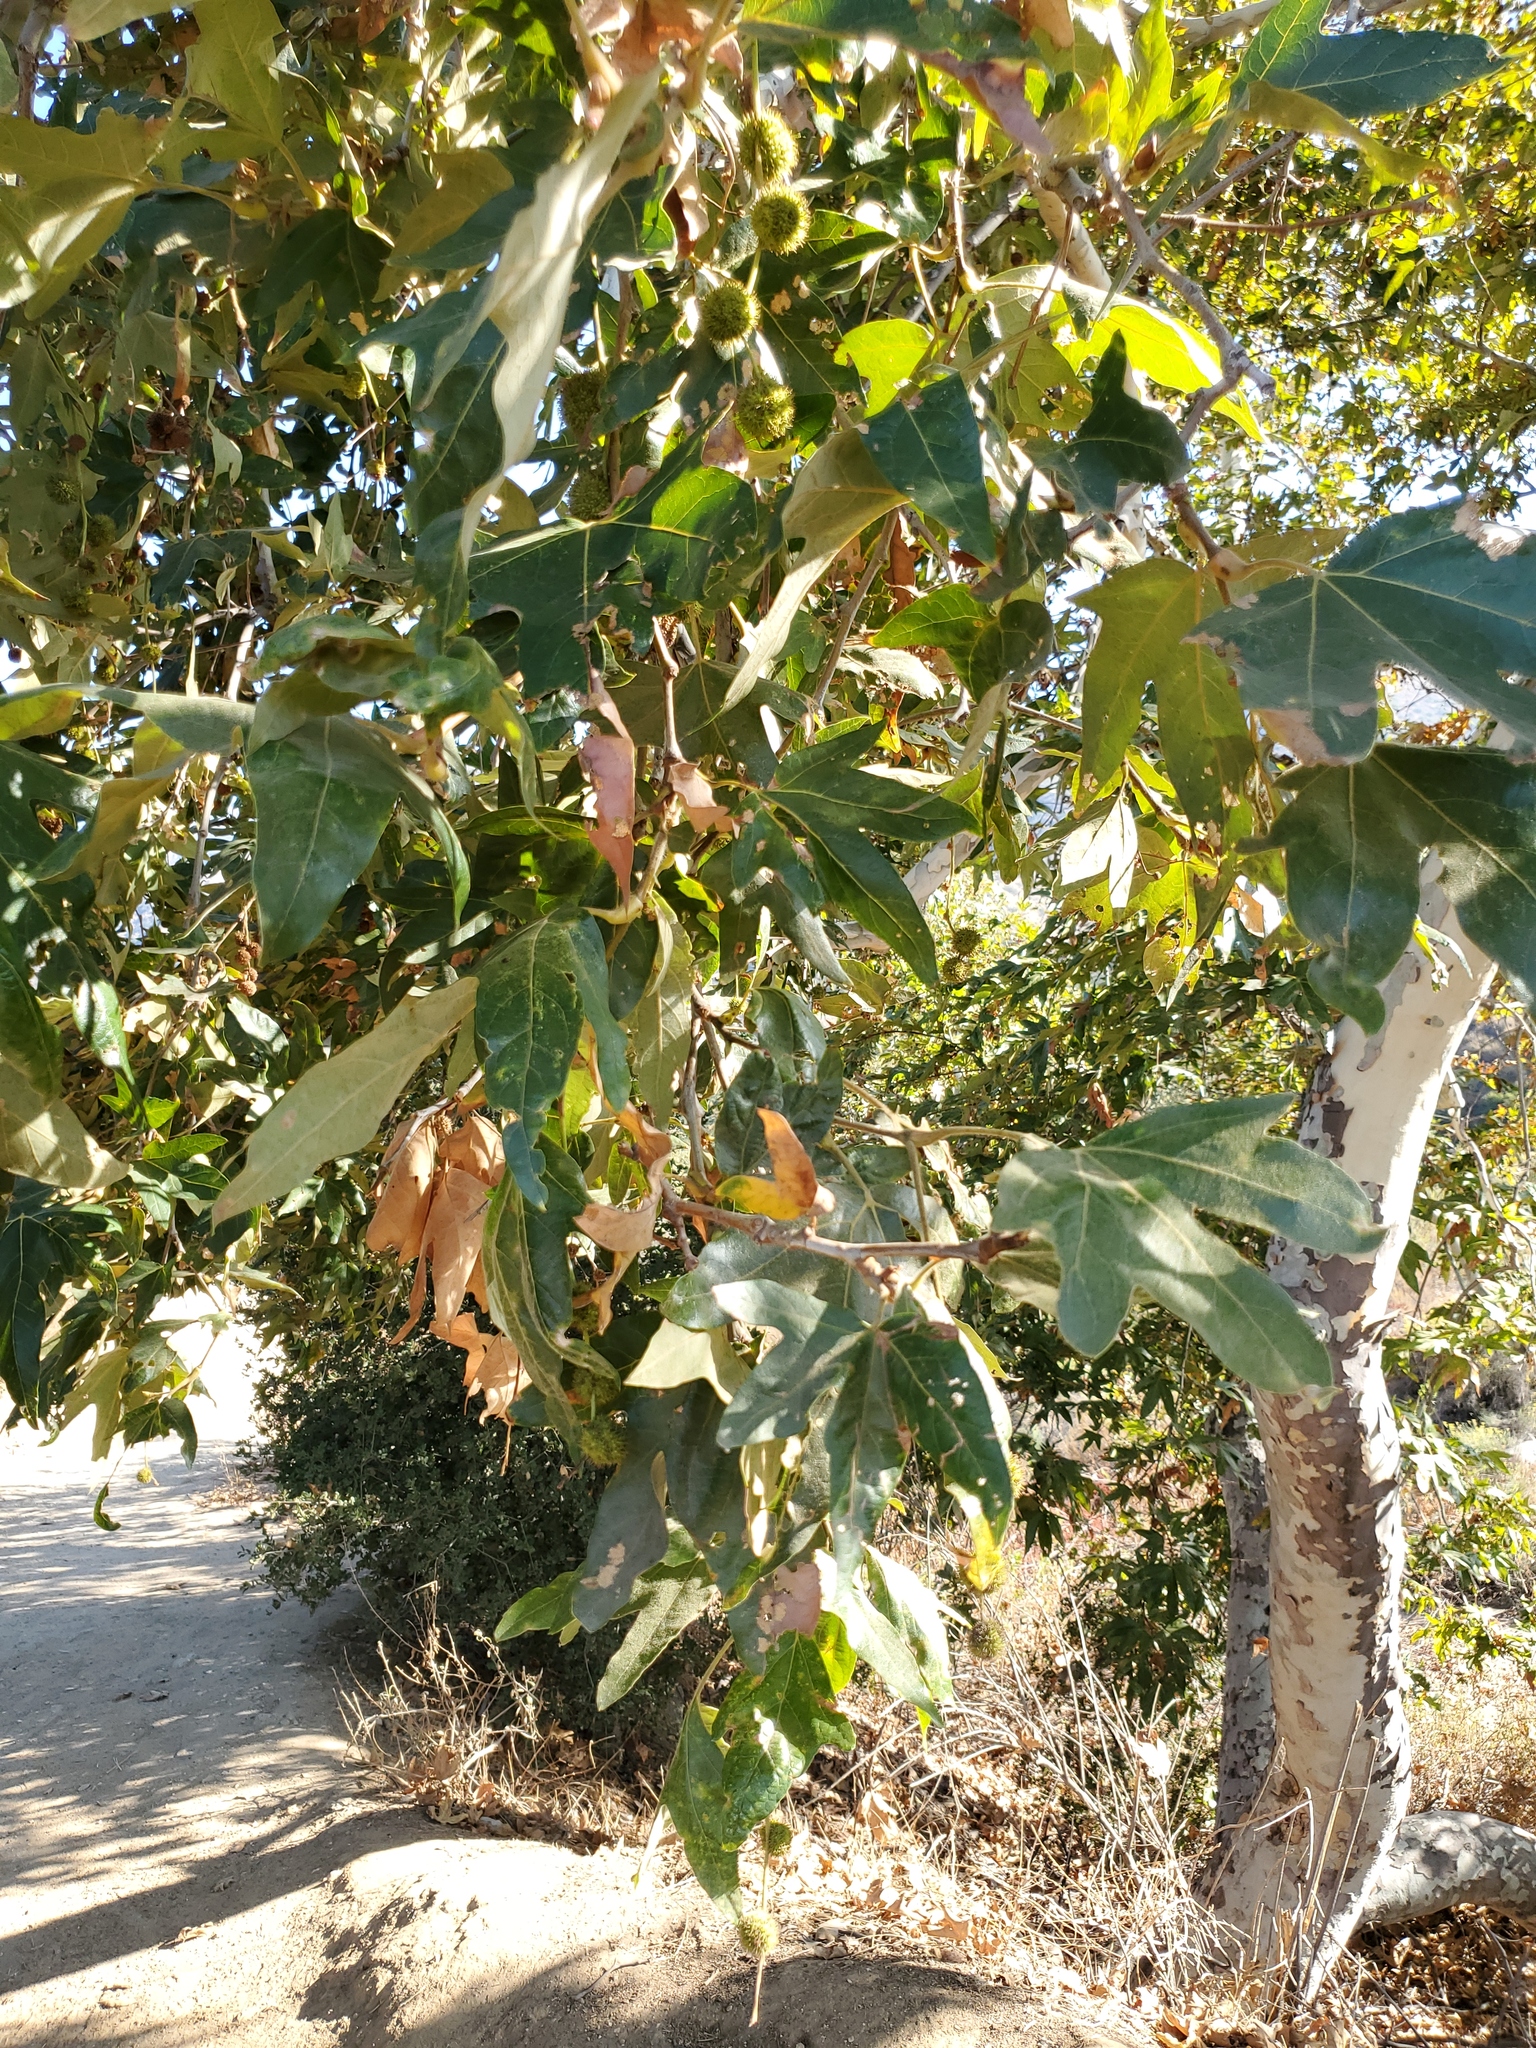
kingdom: Plantae
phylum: Tracheophyta
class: Magnoliopsida
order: Proteales
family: Platanaceae
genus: Platanus
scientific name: Platanus racemosa
